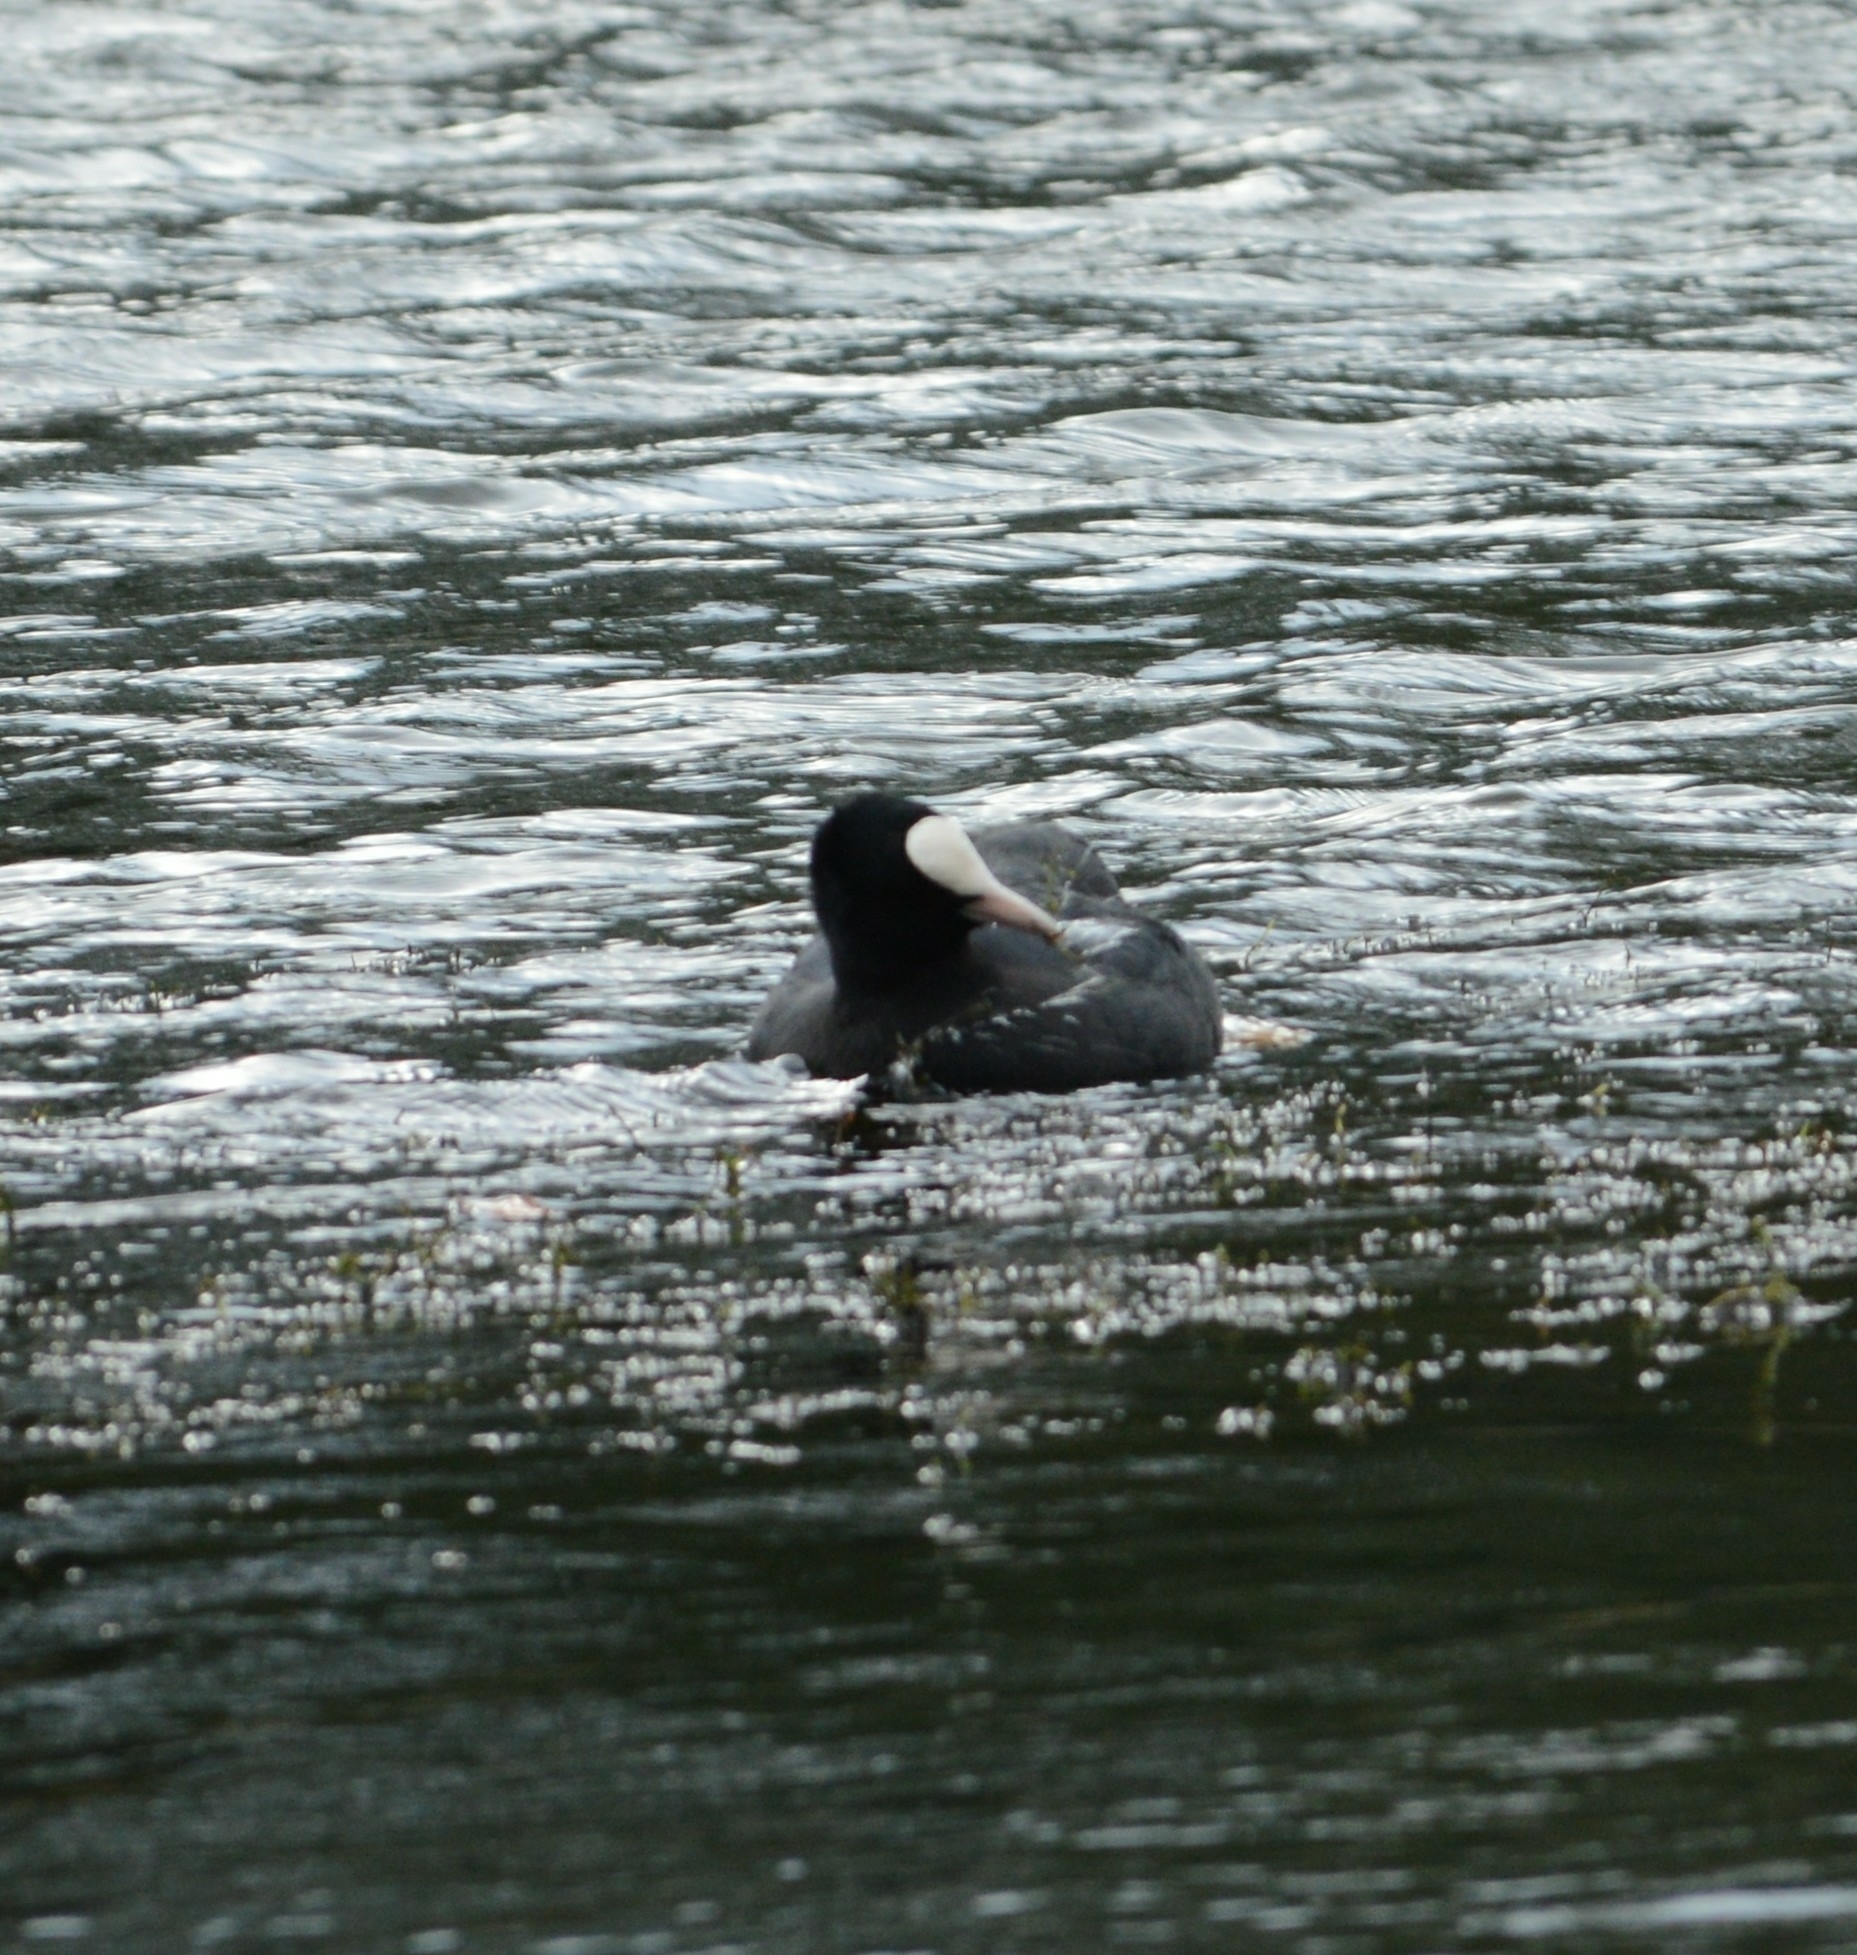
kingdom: Animalia
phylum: Chordata
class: Aves
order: Gruiformes
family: Rallidae
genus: Fulica
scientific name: Fulica atra
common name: Eurasian coot
